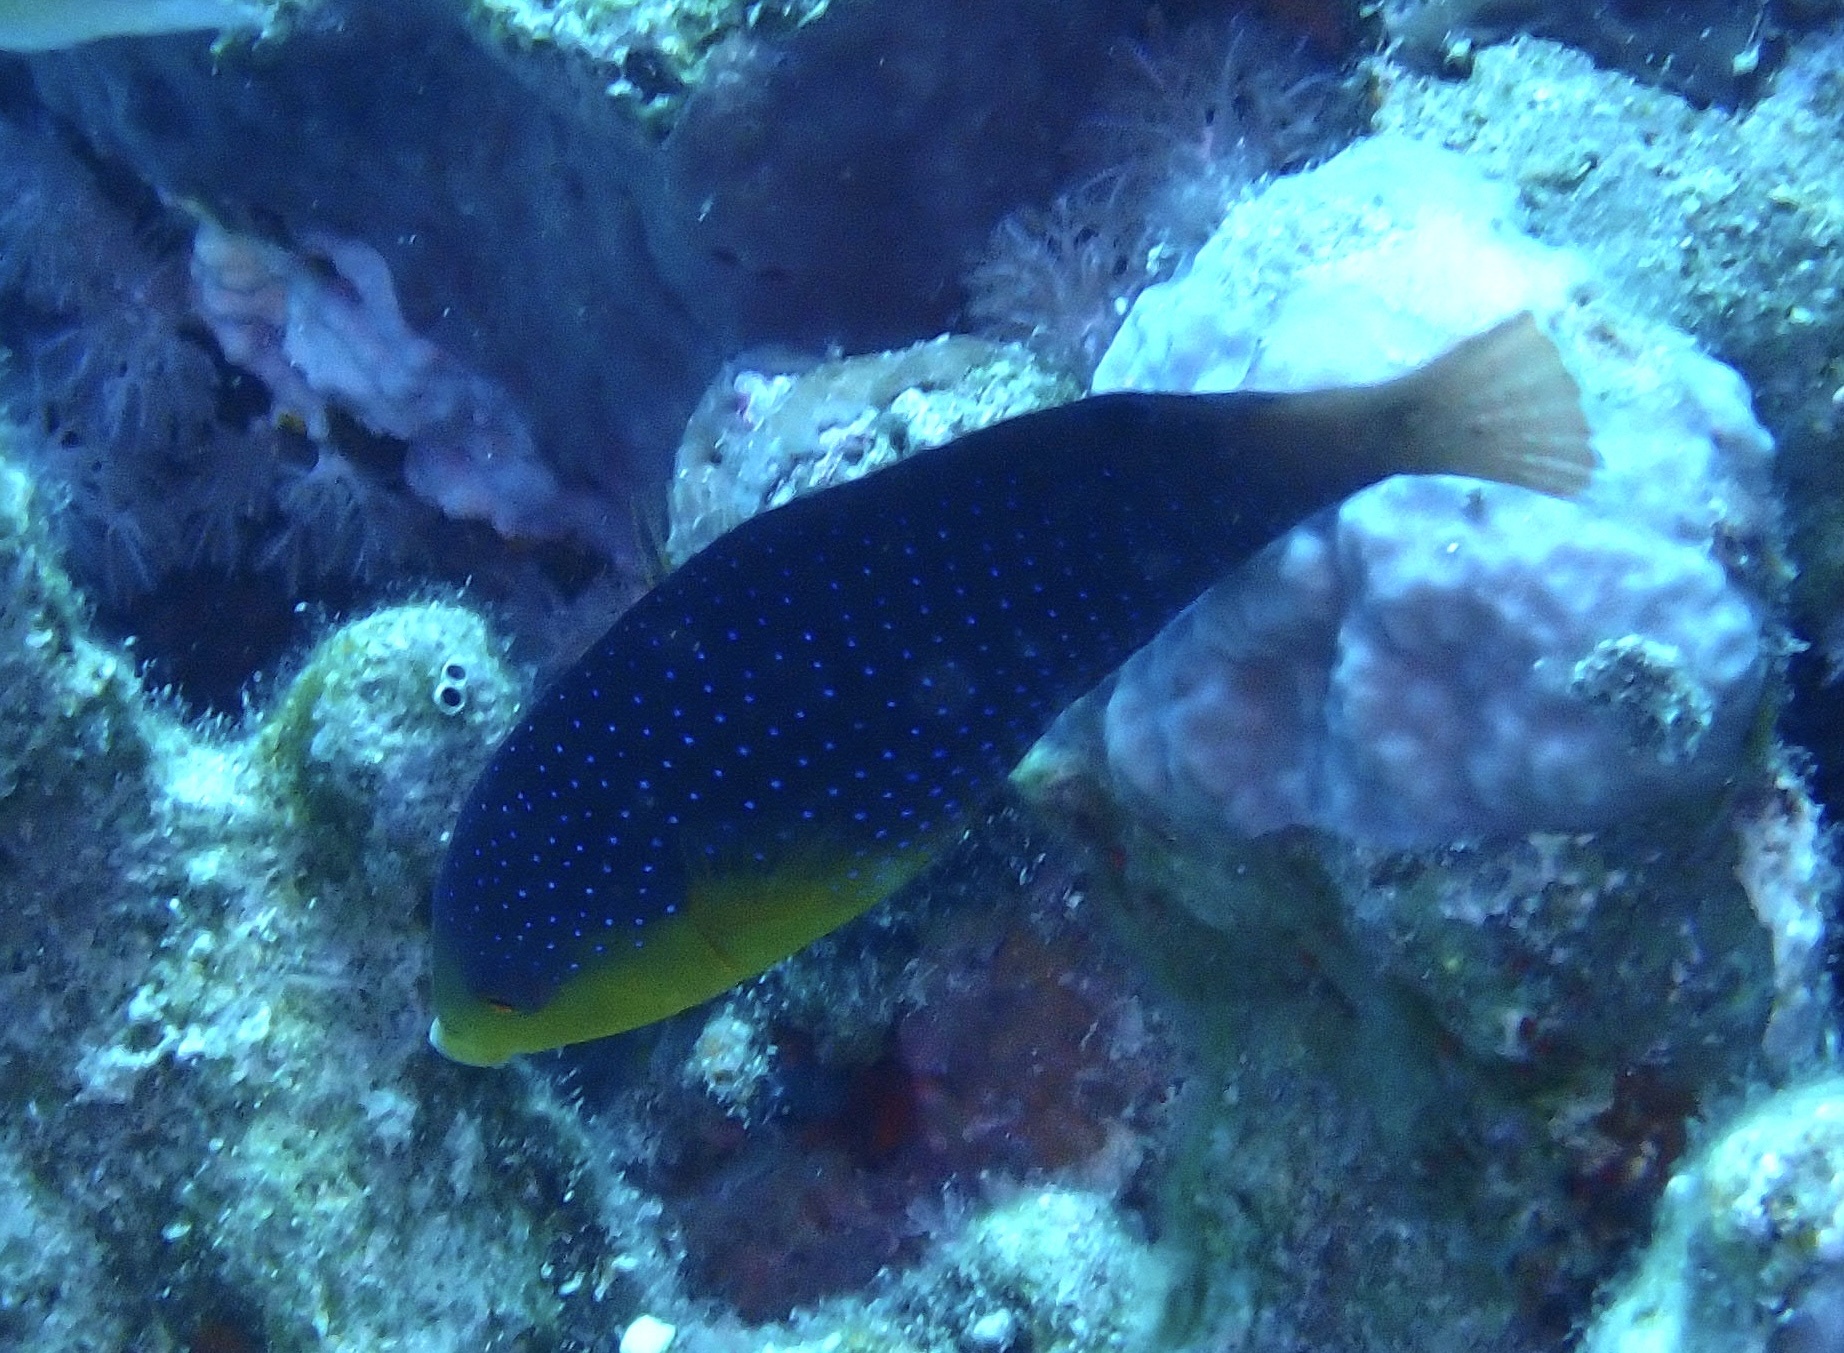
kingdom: Animalia
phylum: Chordata
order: Perciformes
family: Labridae
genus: Anampses
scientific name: Anampses twistii
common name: Yellowbreasted wrasse
